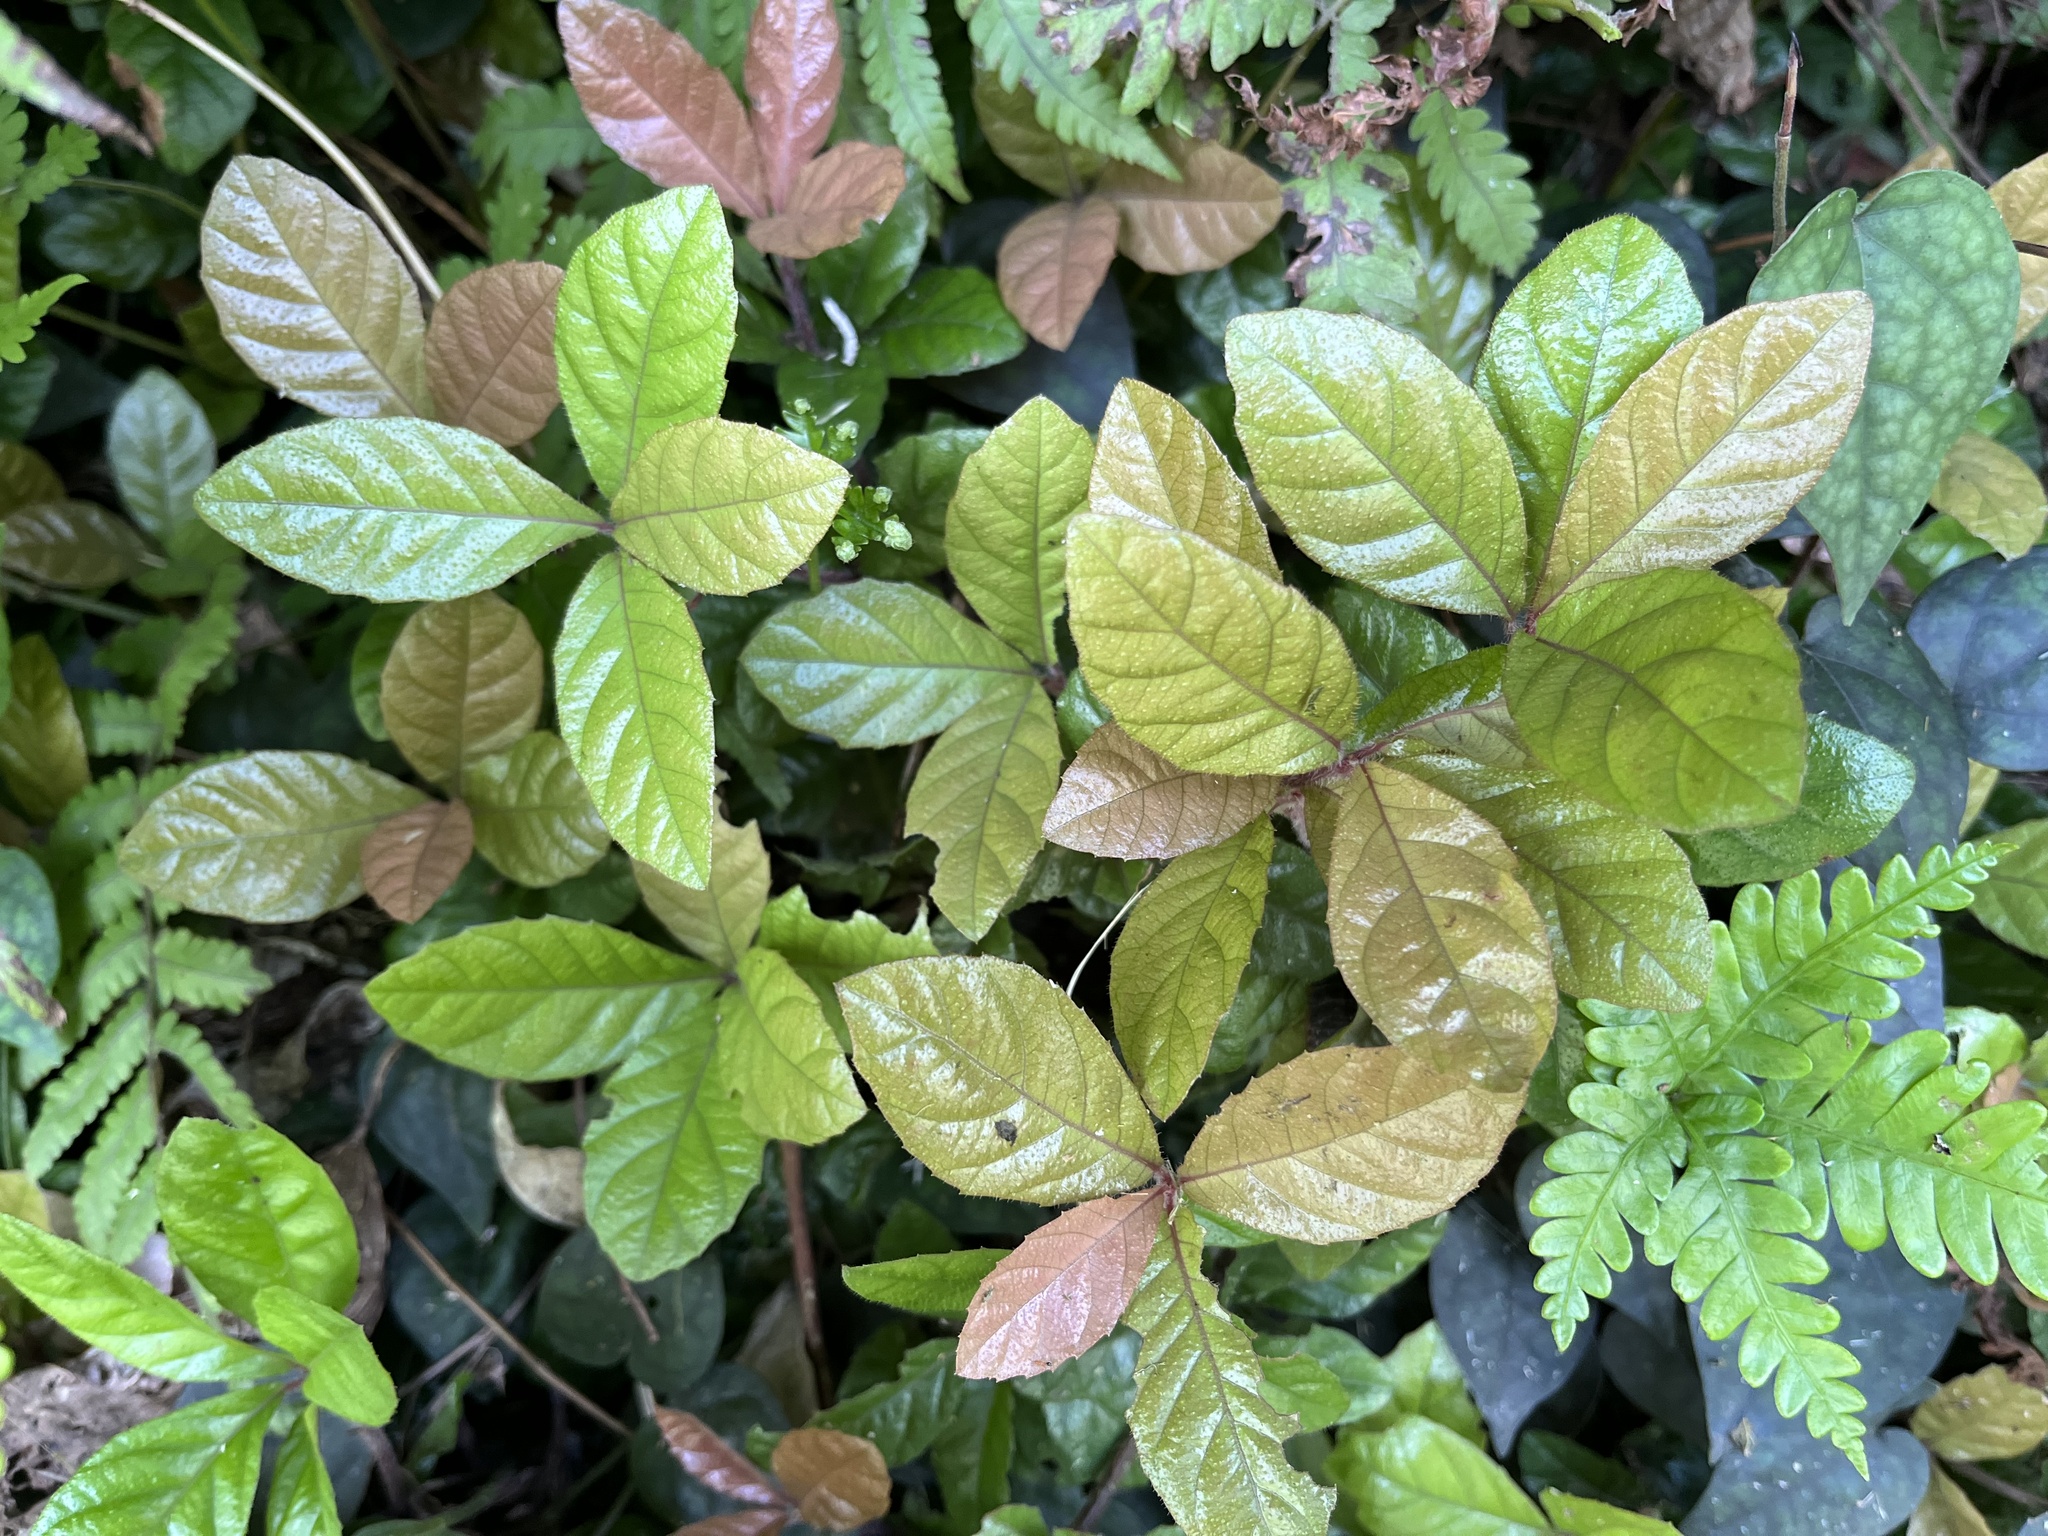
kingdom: Plantae
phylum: Tracheophyta
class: Magnoliopsida
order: Ericales
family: Primulaceae
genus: Ardisia
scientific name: Ardisia pusilla
